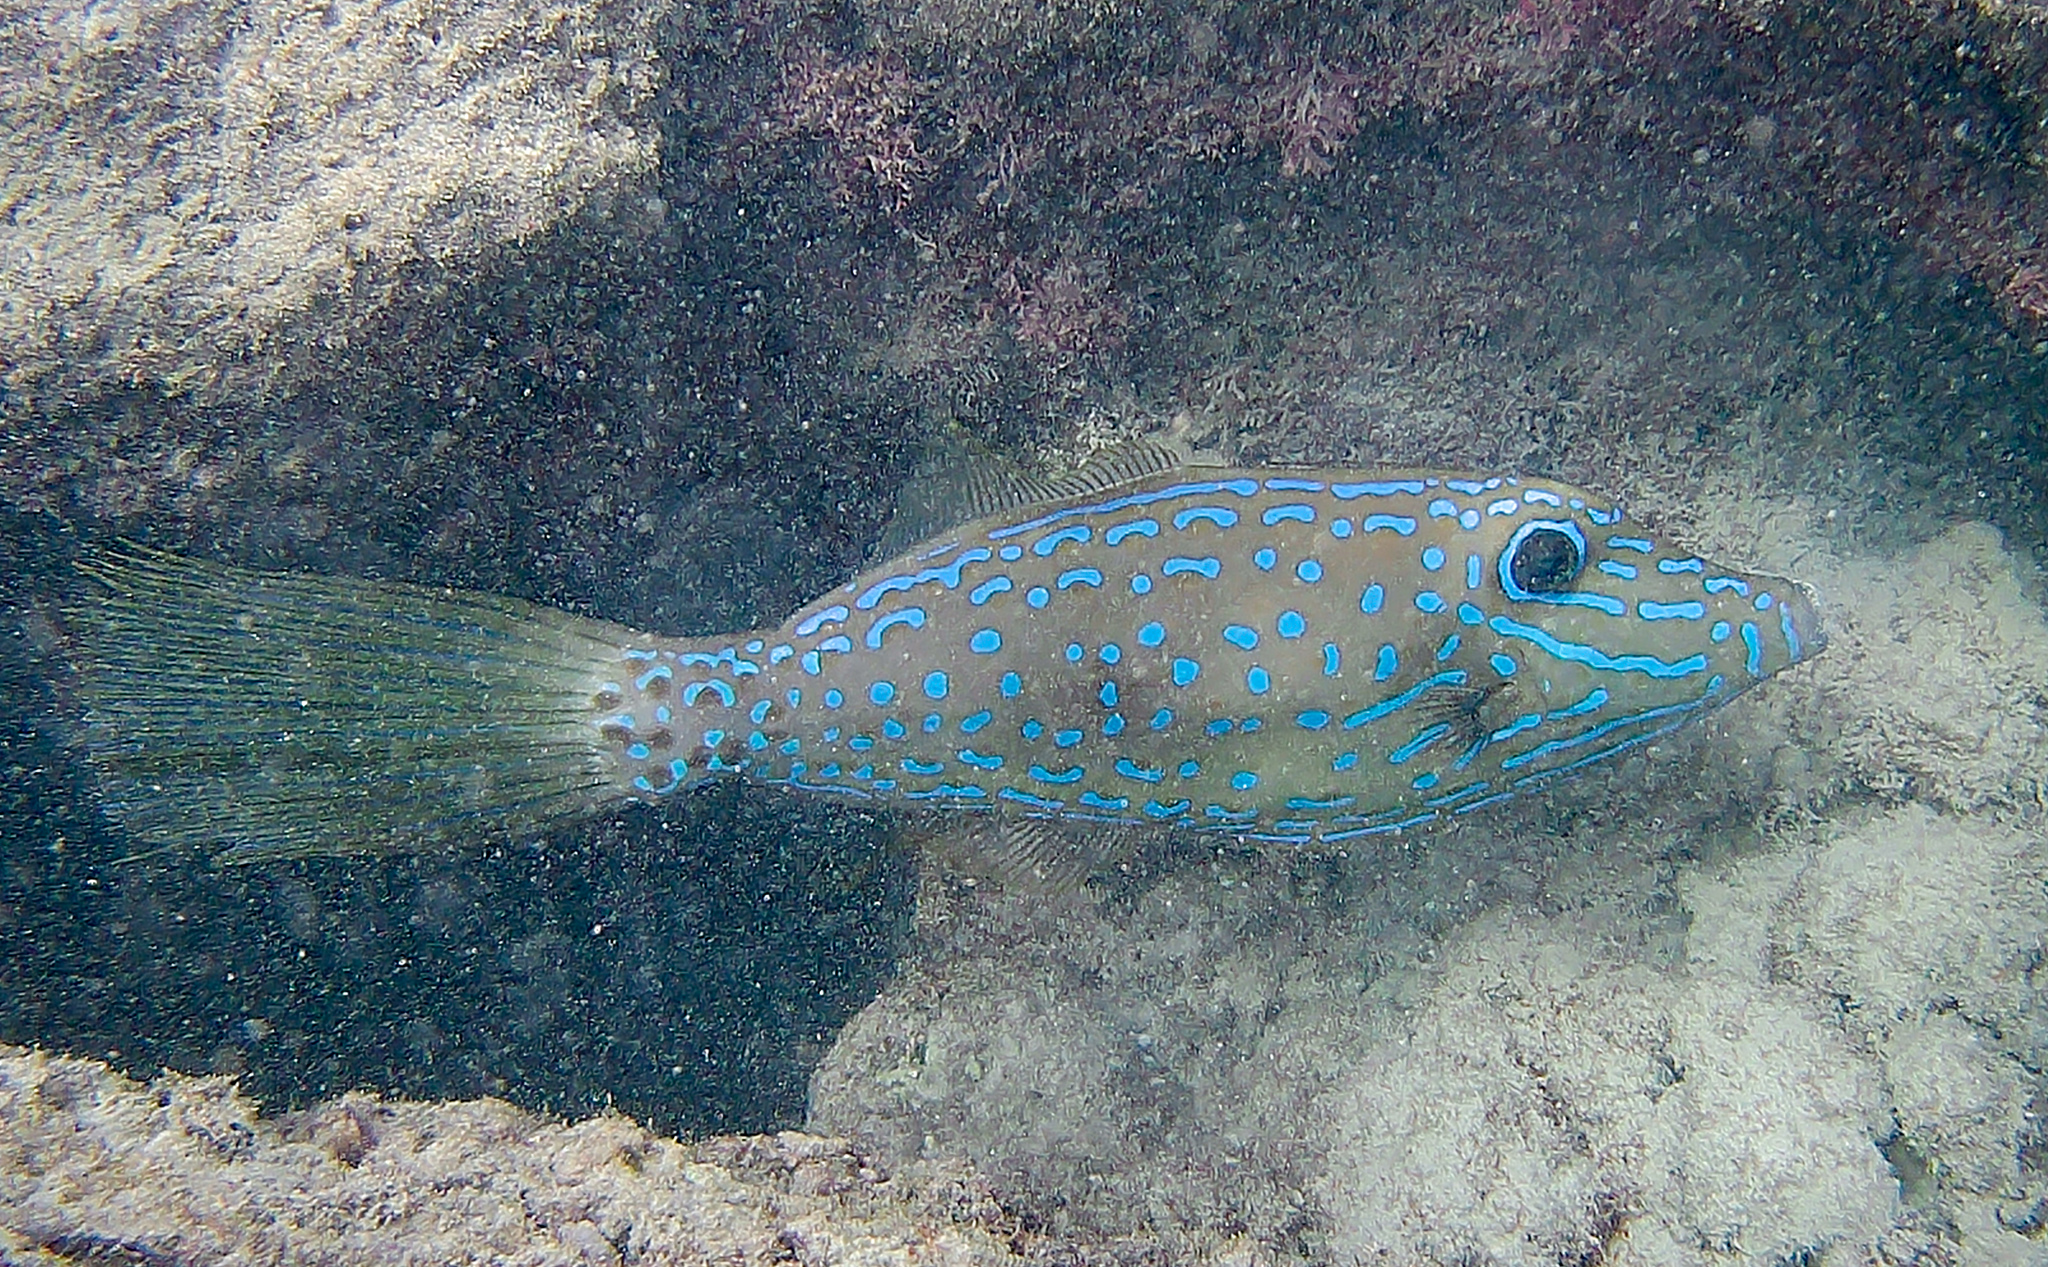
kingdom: Animalia
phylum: Chordata
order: Tetraodontiformes
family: Monacanthidae
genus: Aluterus
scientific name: Aluterus scriptus
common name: Scribbled leatherjacket filefish
